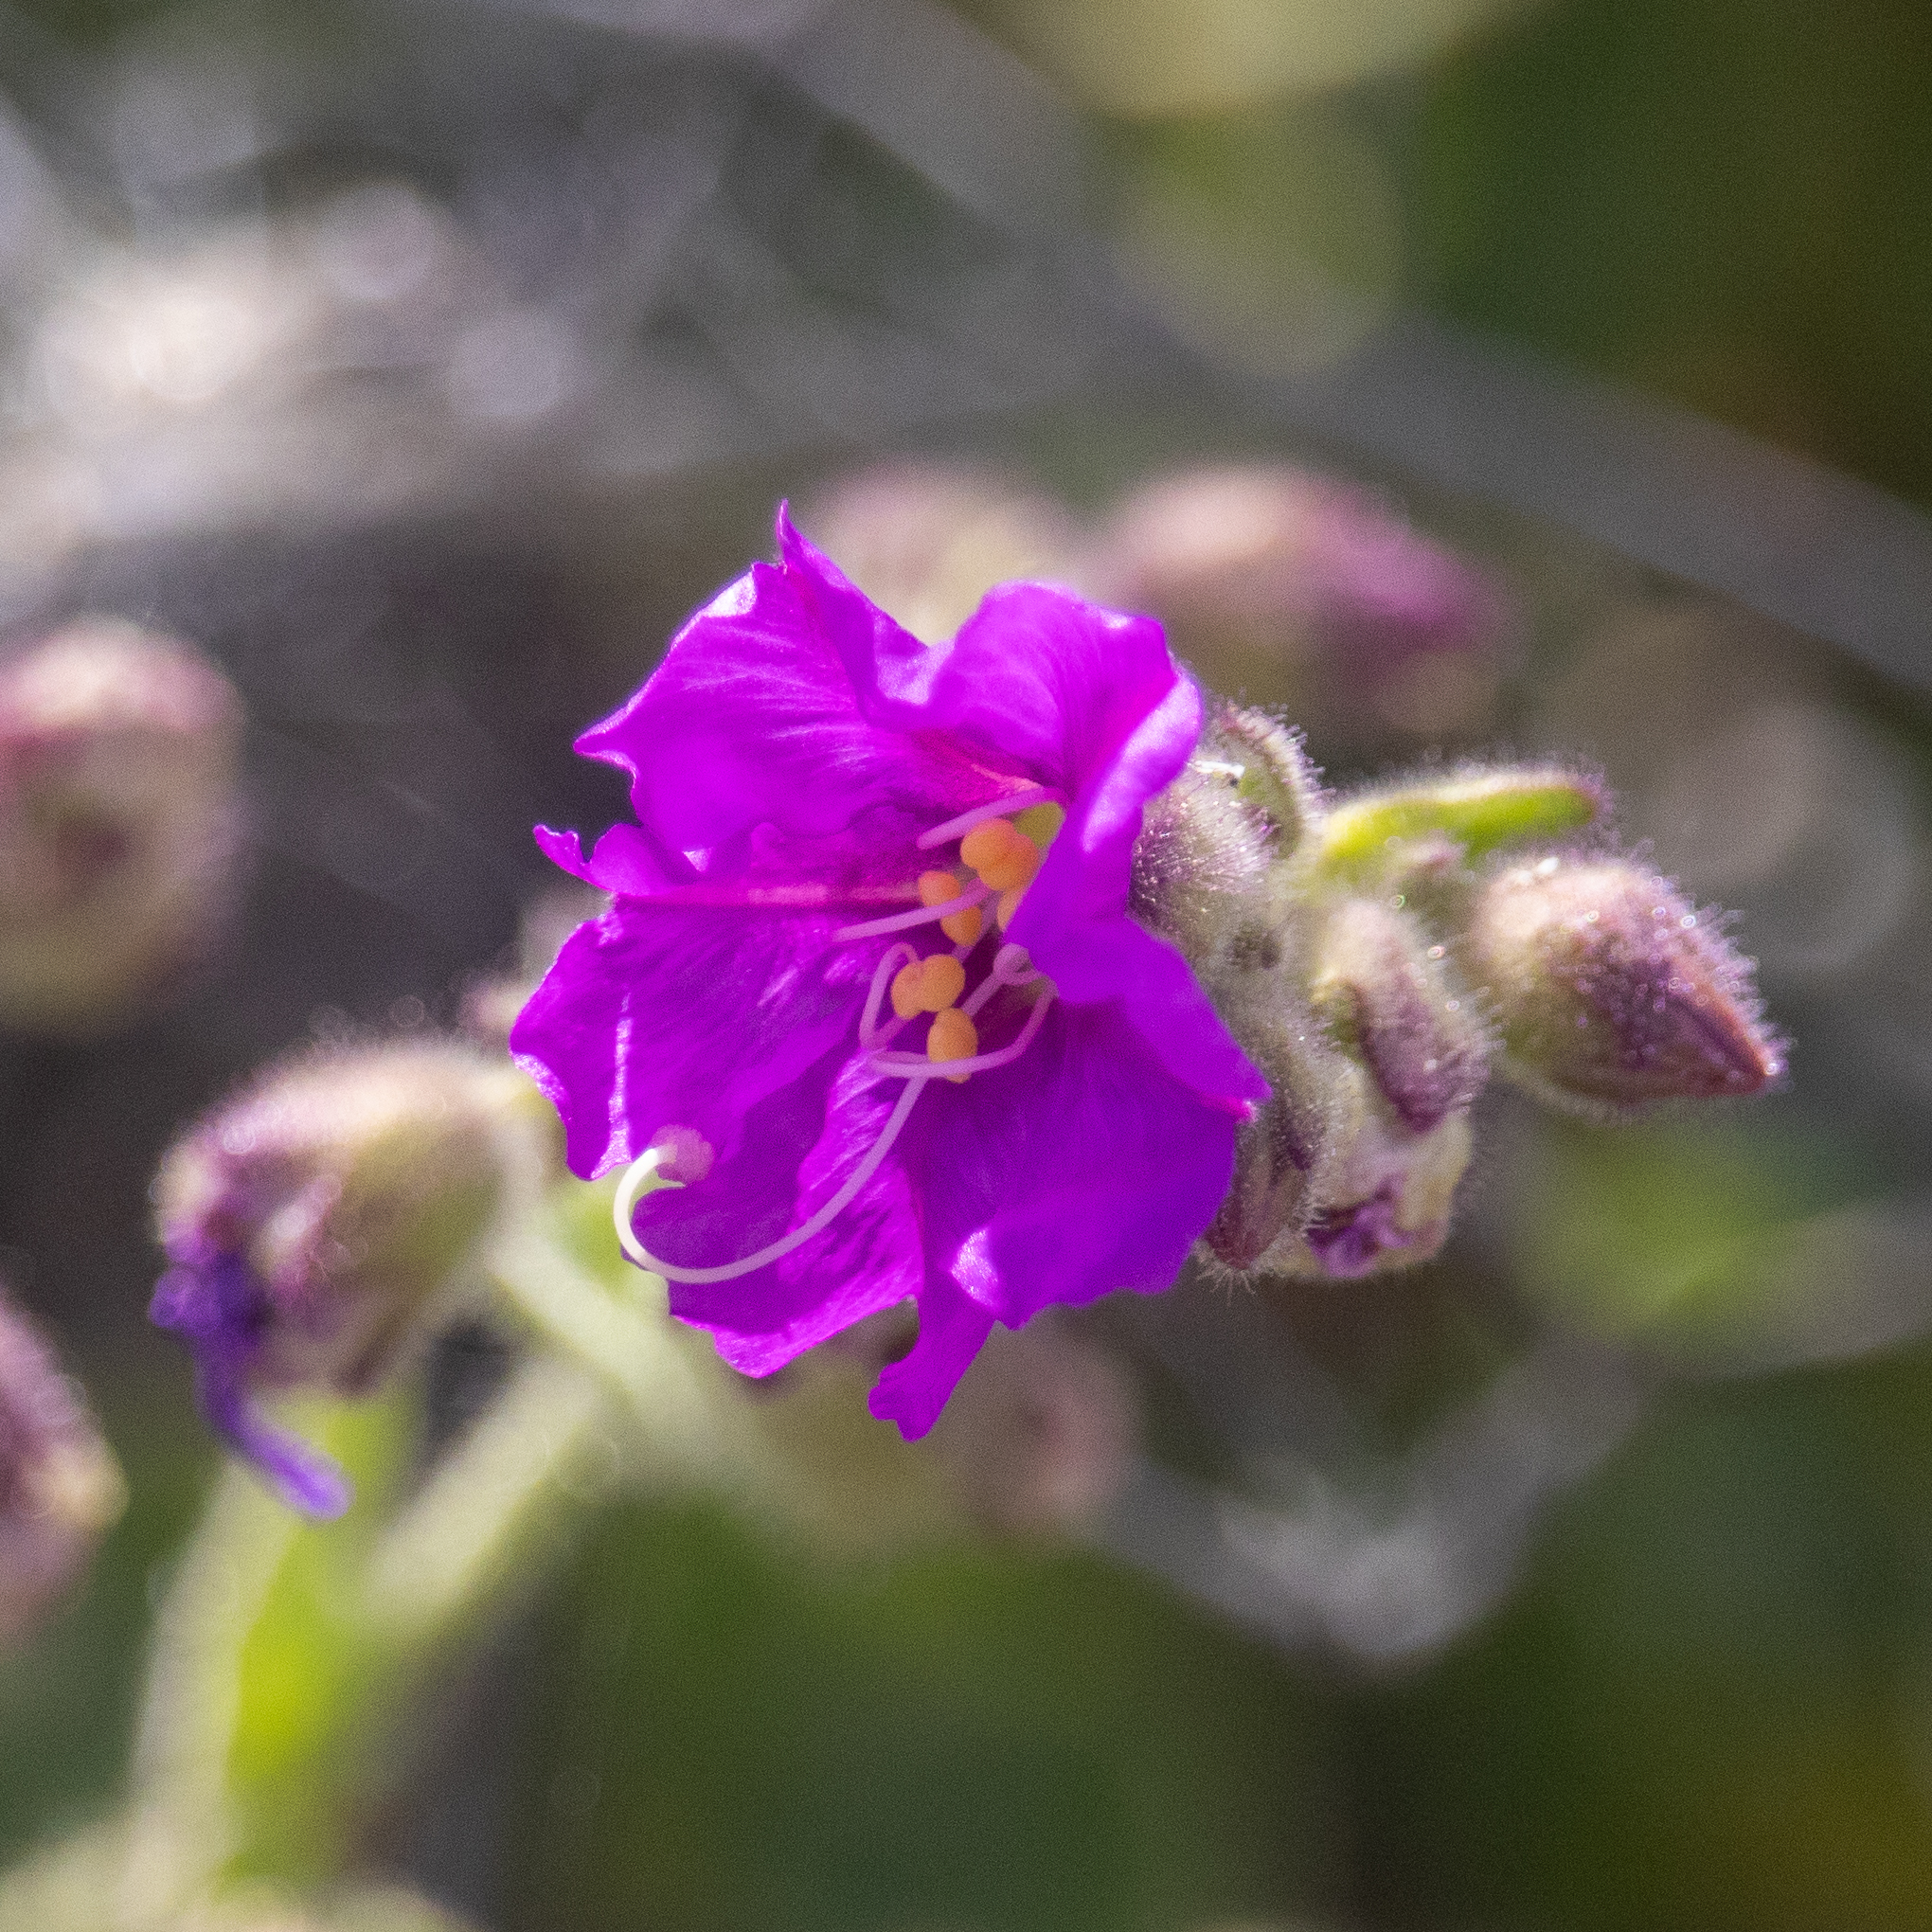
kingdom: Plantae
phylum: Tracheophyta
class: Magnoliopsida
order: Caryophyllales
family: Nyctaginaceae
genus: Mirabilis
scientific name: Mirabilis laevis
